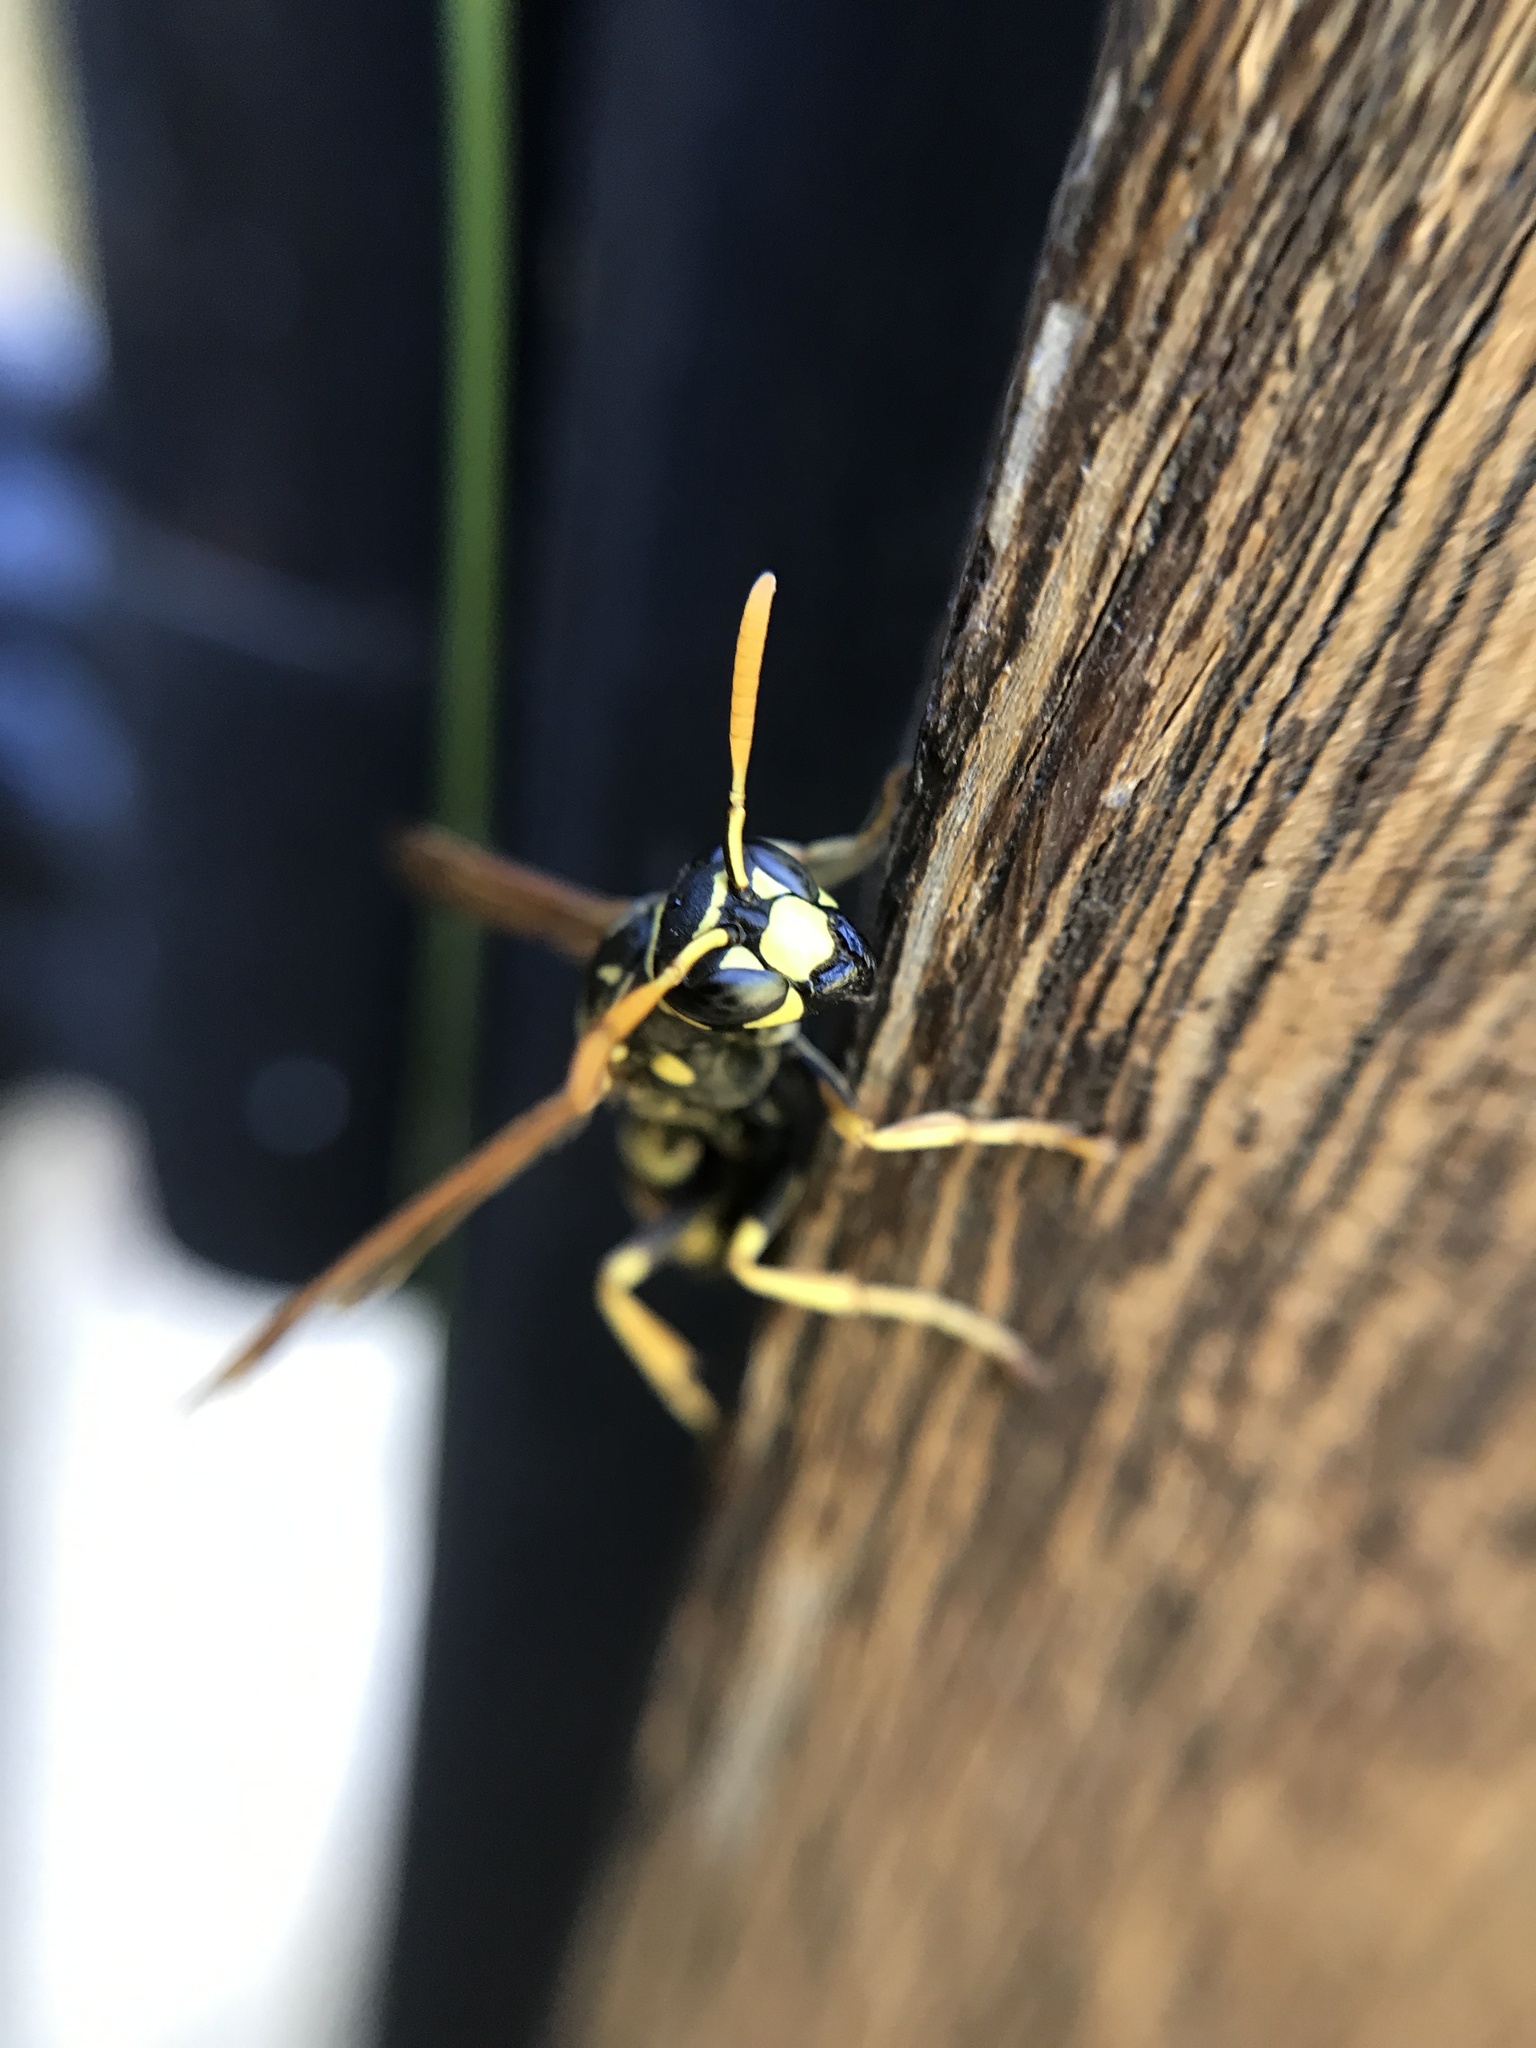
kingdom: Animalia
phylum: Arthropoda
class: Insecta
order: Hymenoptera
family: Eumenidae
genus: Polistes
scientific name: Polistes dominula
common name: Paper wasp
